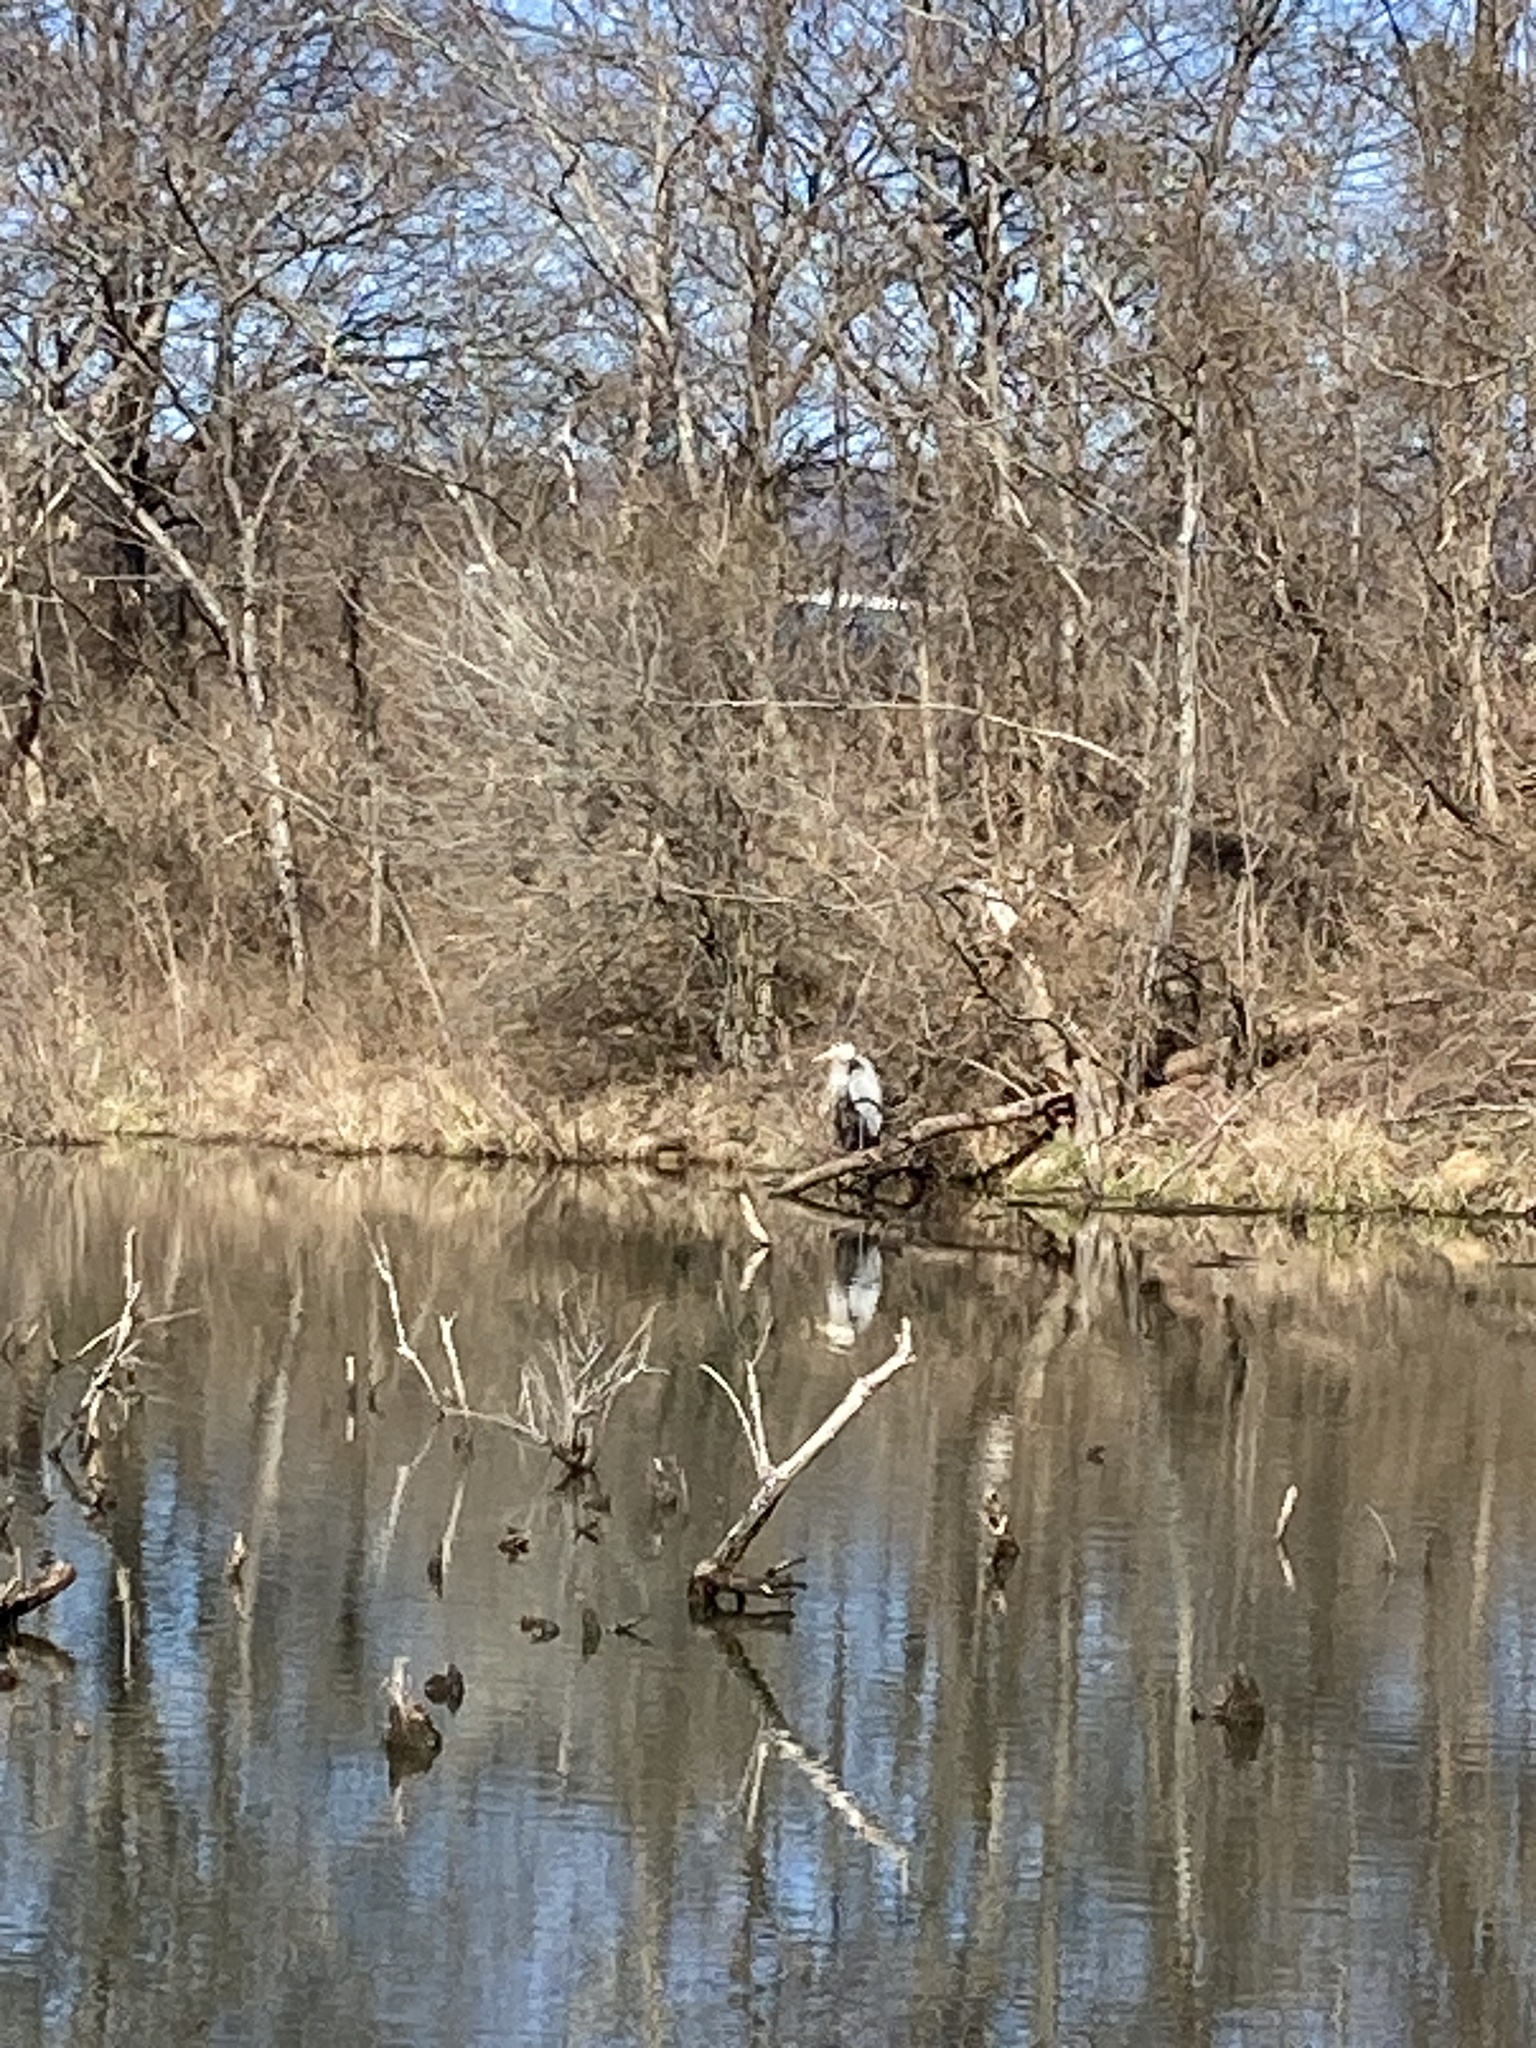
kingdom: Animalia
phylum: Chordata
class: Aves
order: Pelecaniformes
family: Ardeidae
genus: Ardea
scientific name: Ardea herodias
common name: Great blue heron
